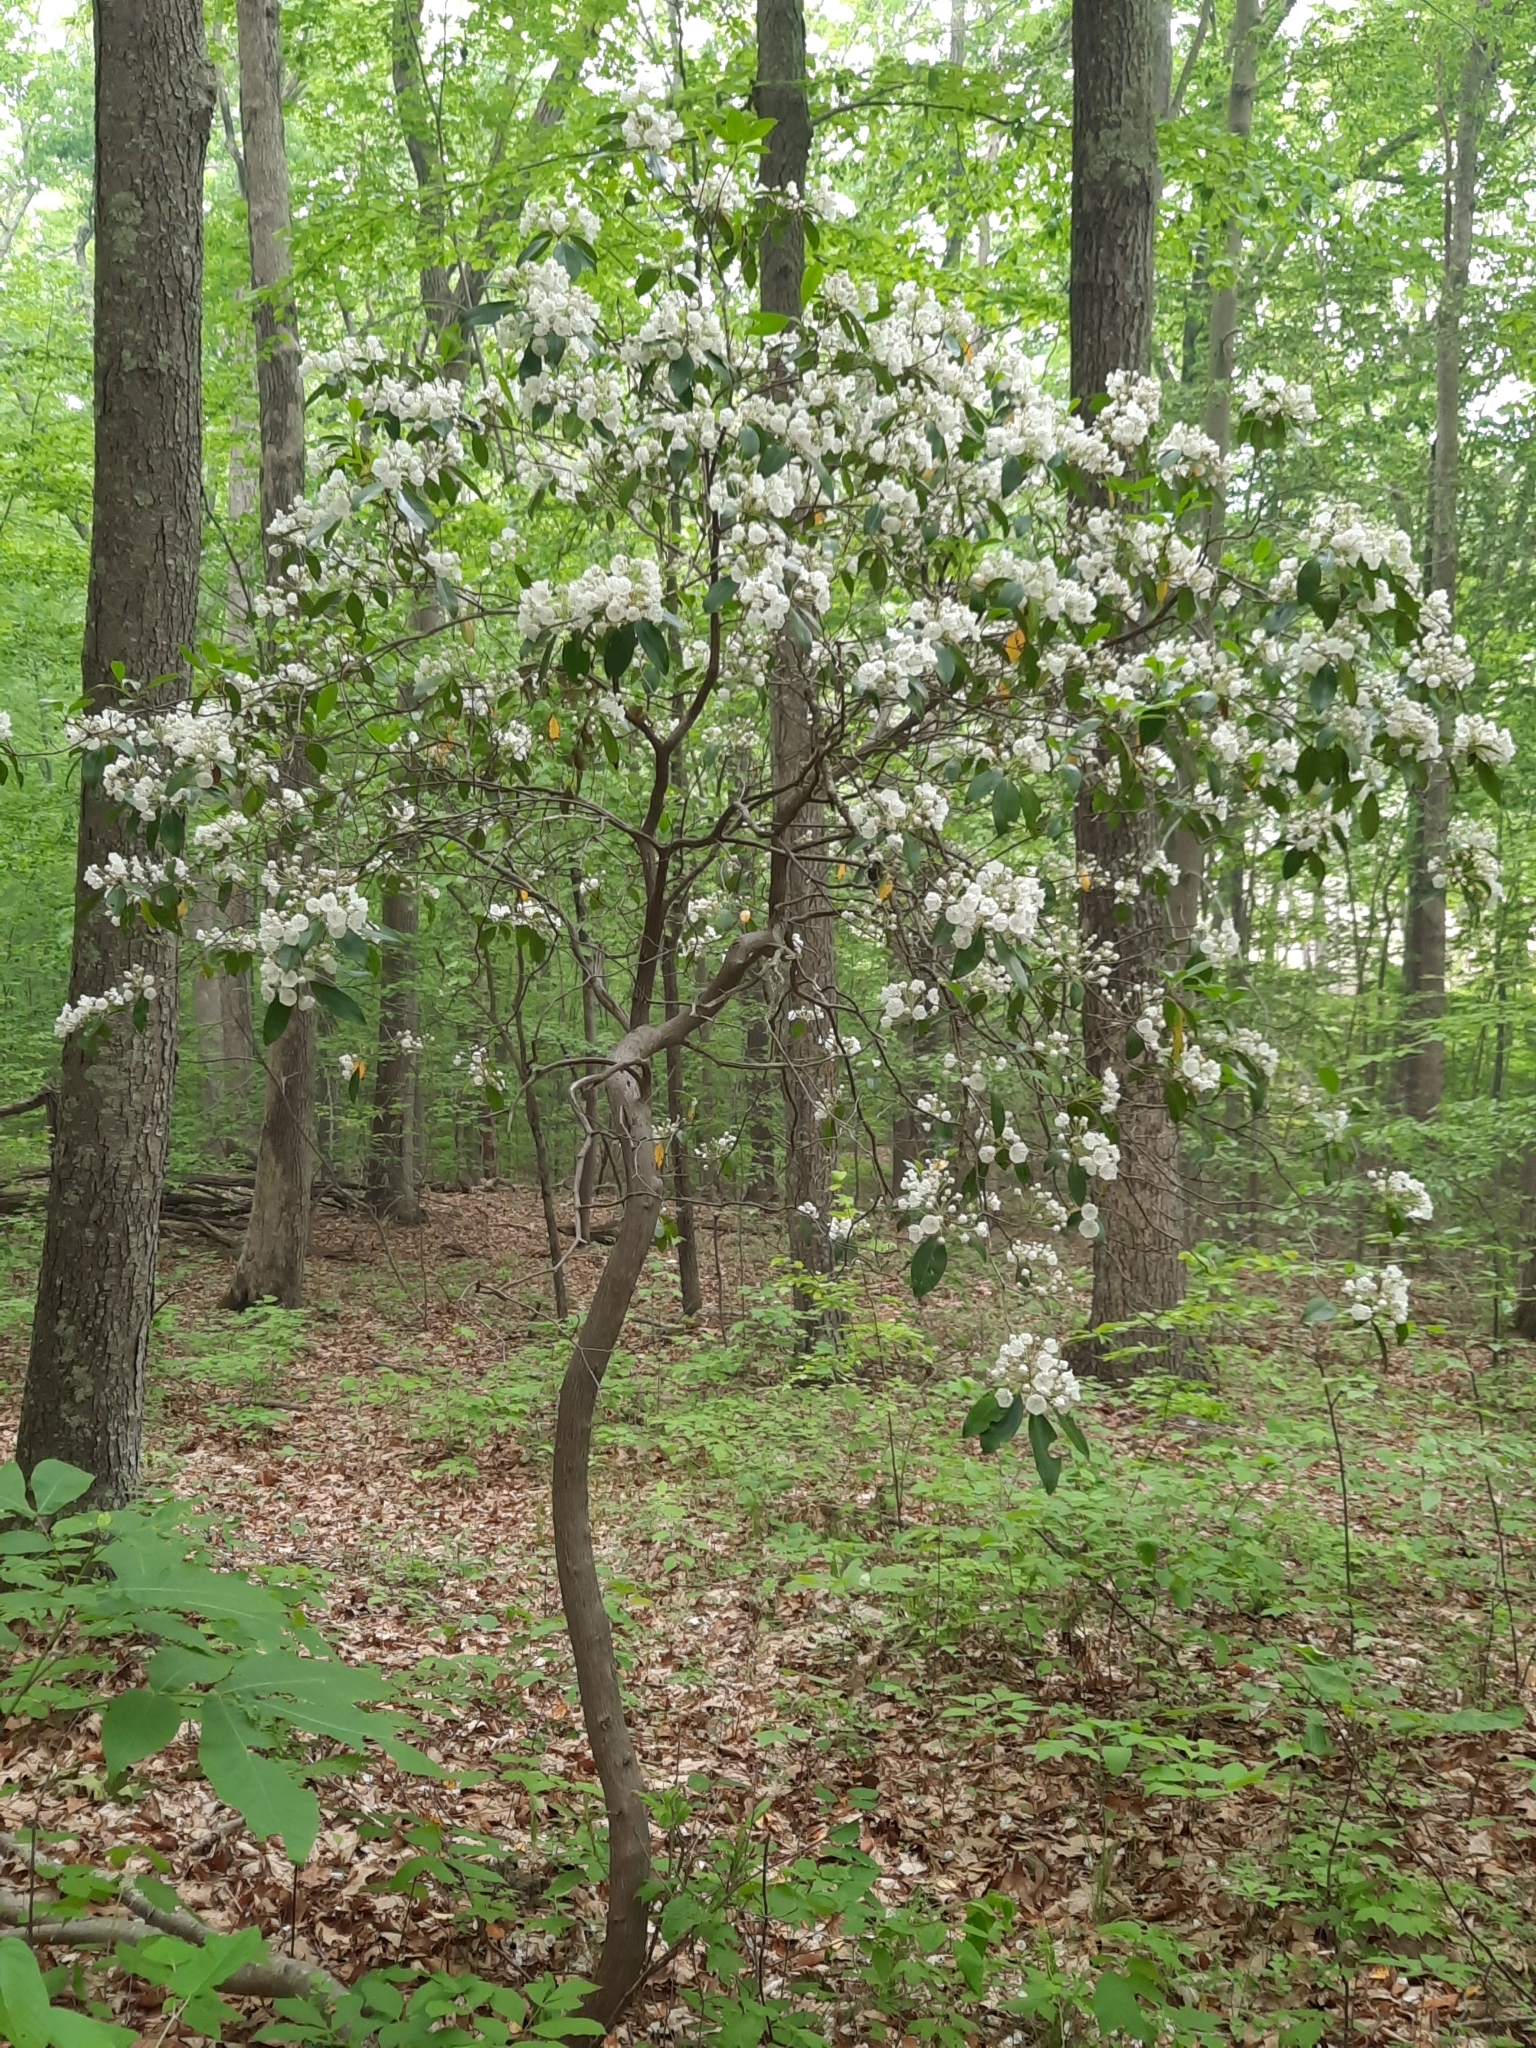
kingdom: Plantae
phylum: Tracheophyta
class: Magnoliopsida
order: Ericales
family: Ericaceae
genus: Kalmia
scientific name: Kalmia latifolia
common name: Mountain-laurel
